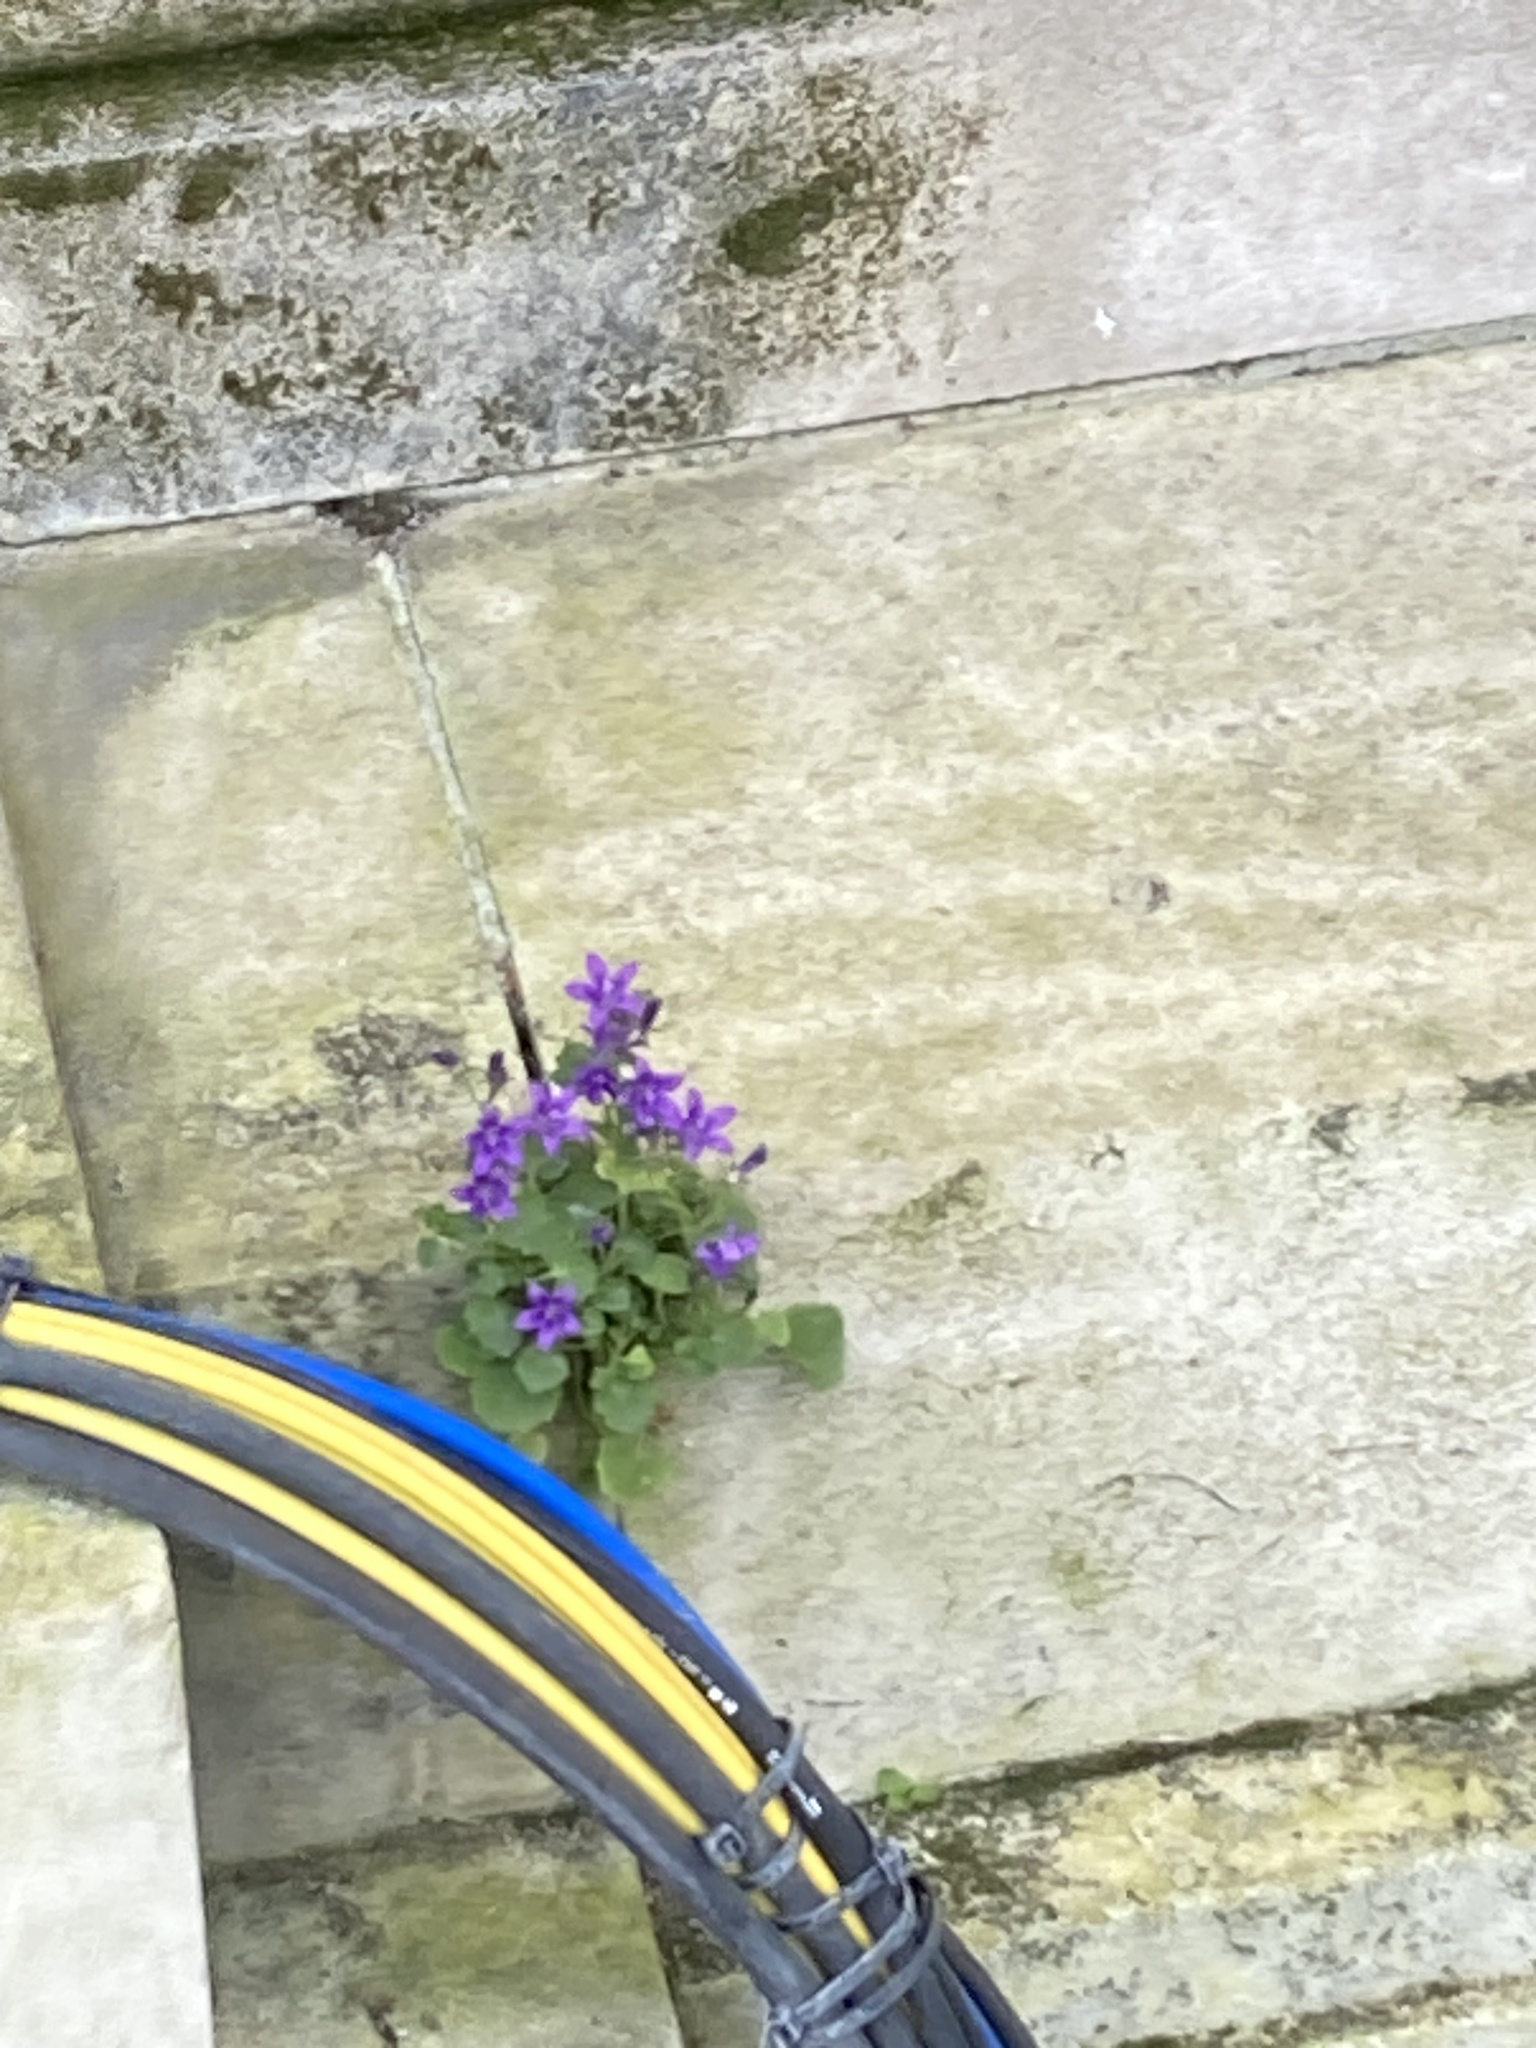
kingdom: Plantae
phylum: Tracheophyta
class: Magnoliopsida
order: Asterales
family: Campanulaceae
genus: Campanula
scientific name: Campanula portenschlagiana
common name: Adria bellflower
